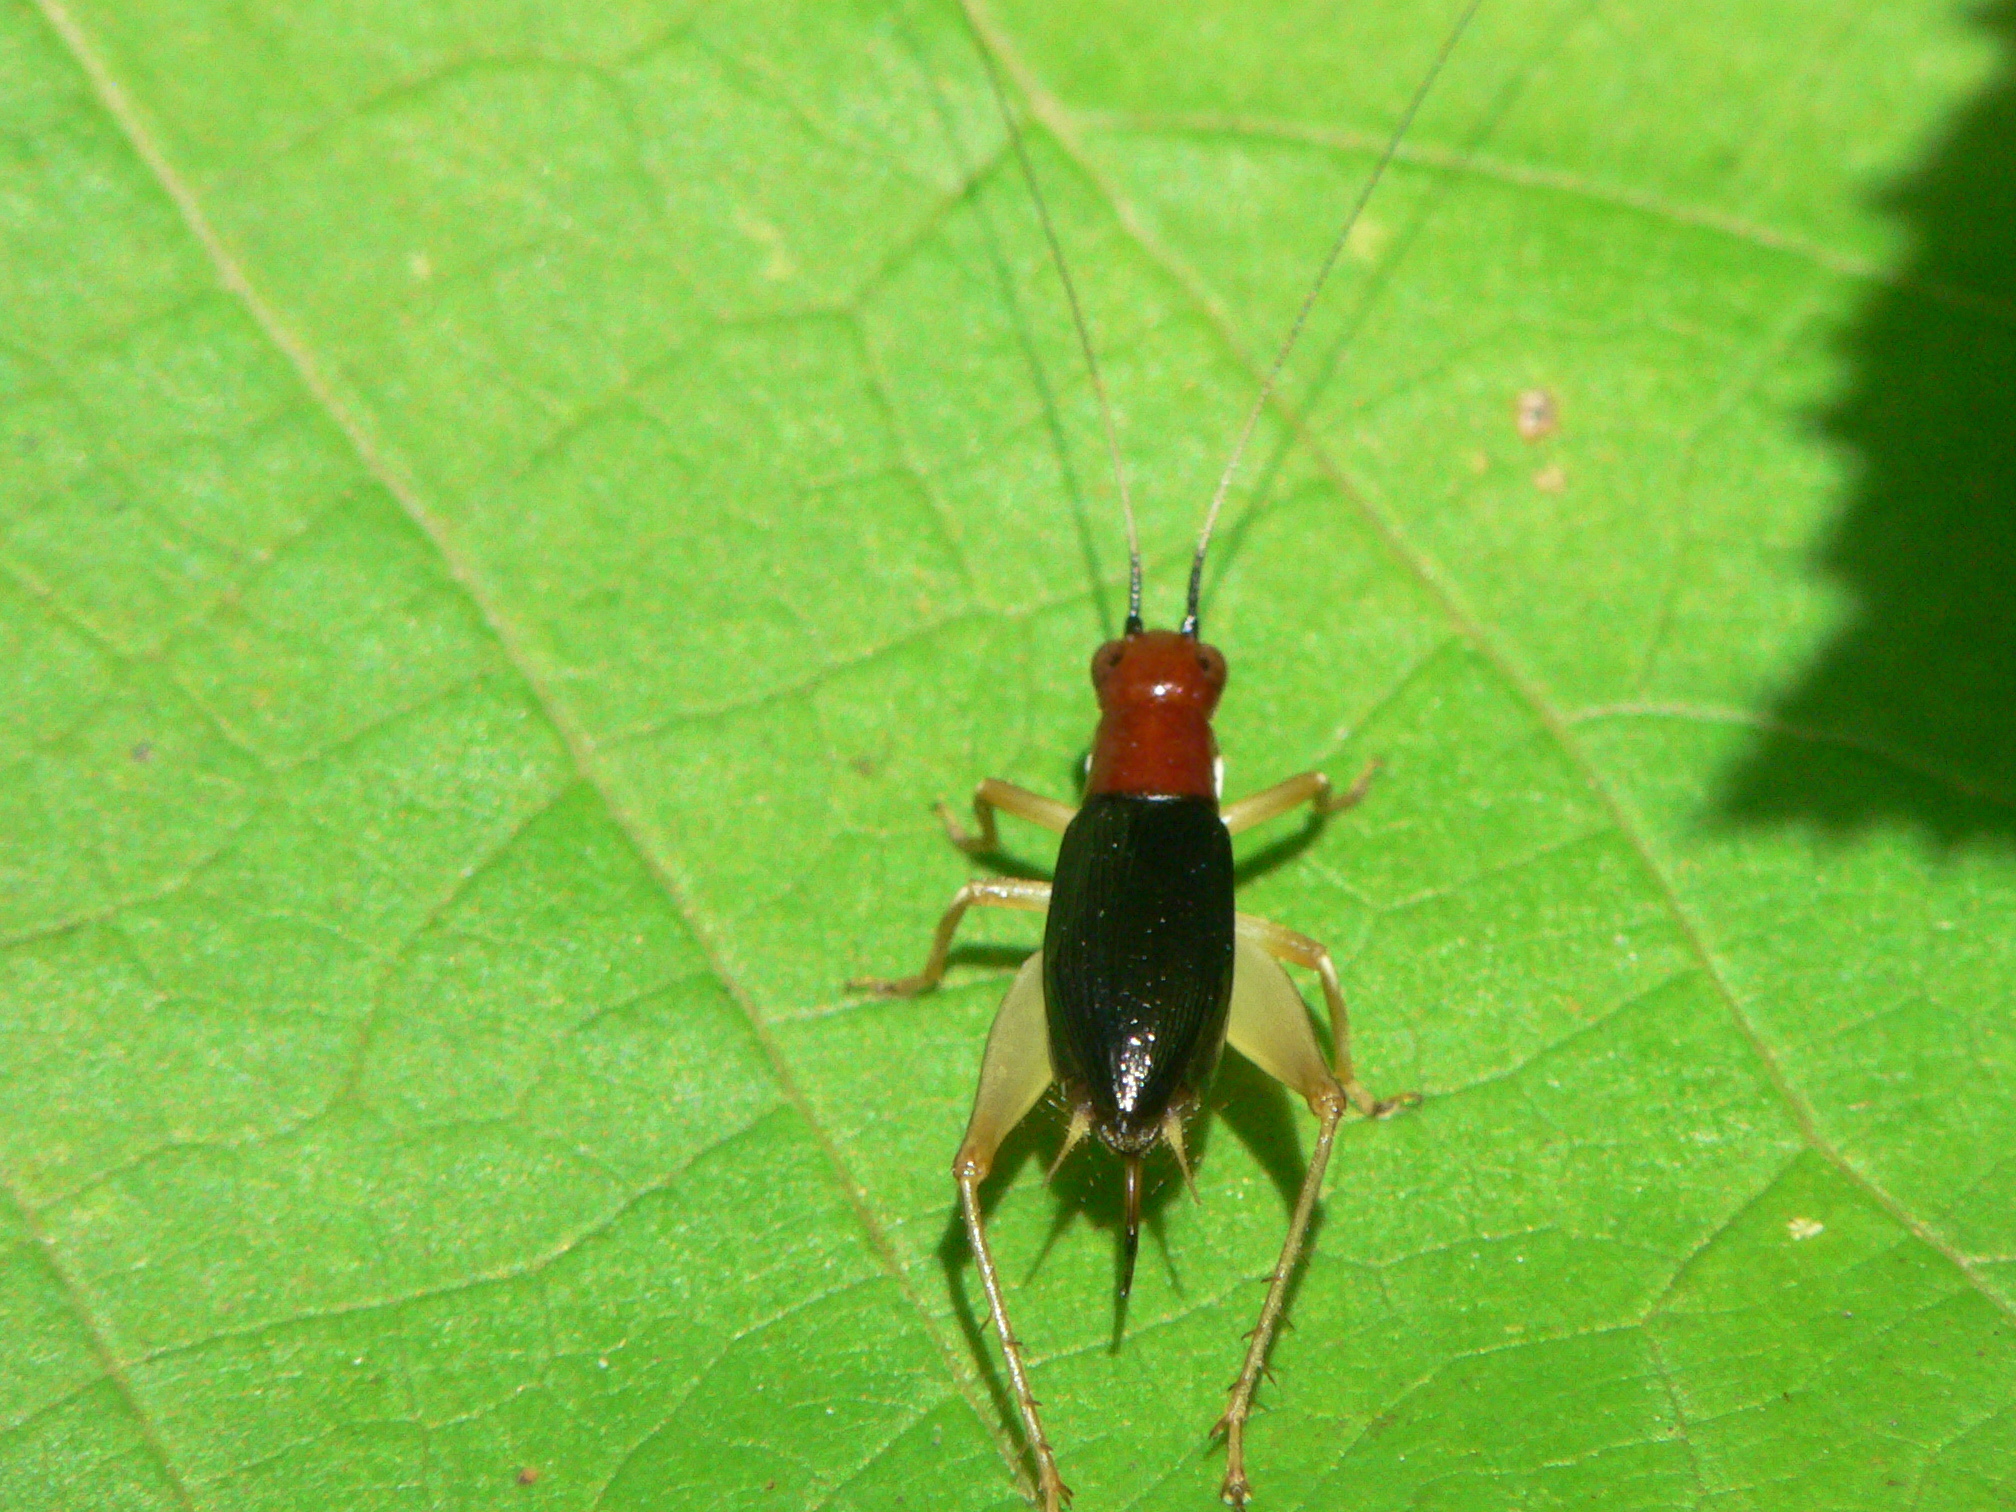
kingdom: Animalia
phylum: Arthropoda
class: Insecta
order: Orthoptera
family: Trigonidiidae
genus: Phyllopalpus
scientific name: Phyllopalpus pulchellus
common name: Handsome trig
